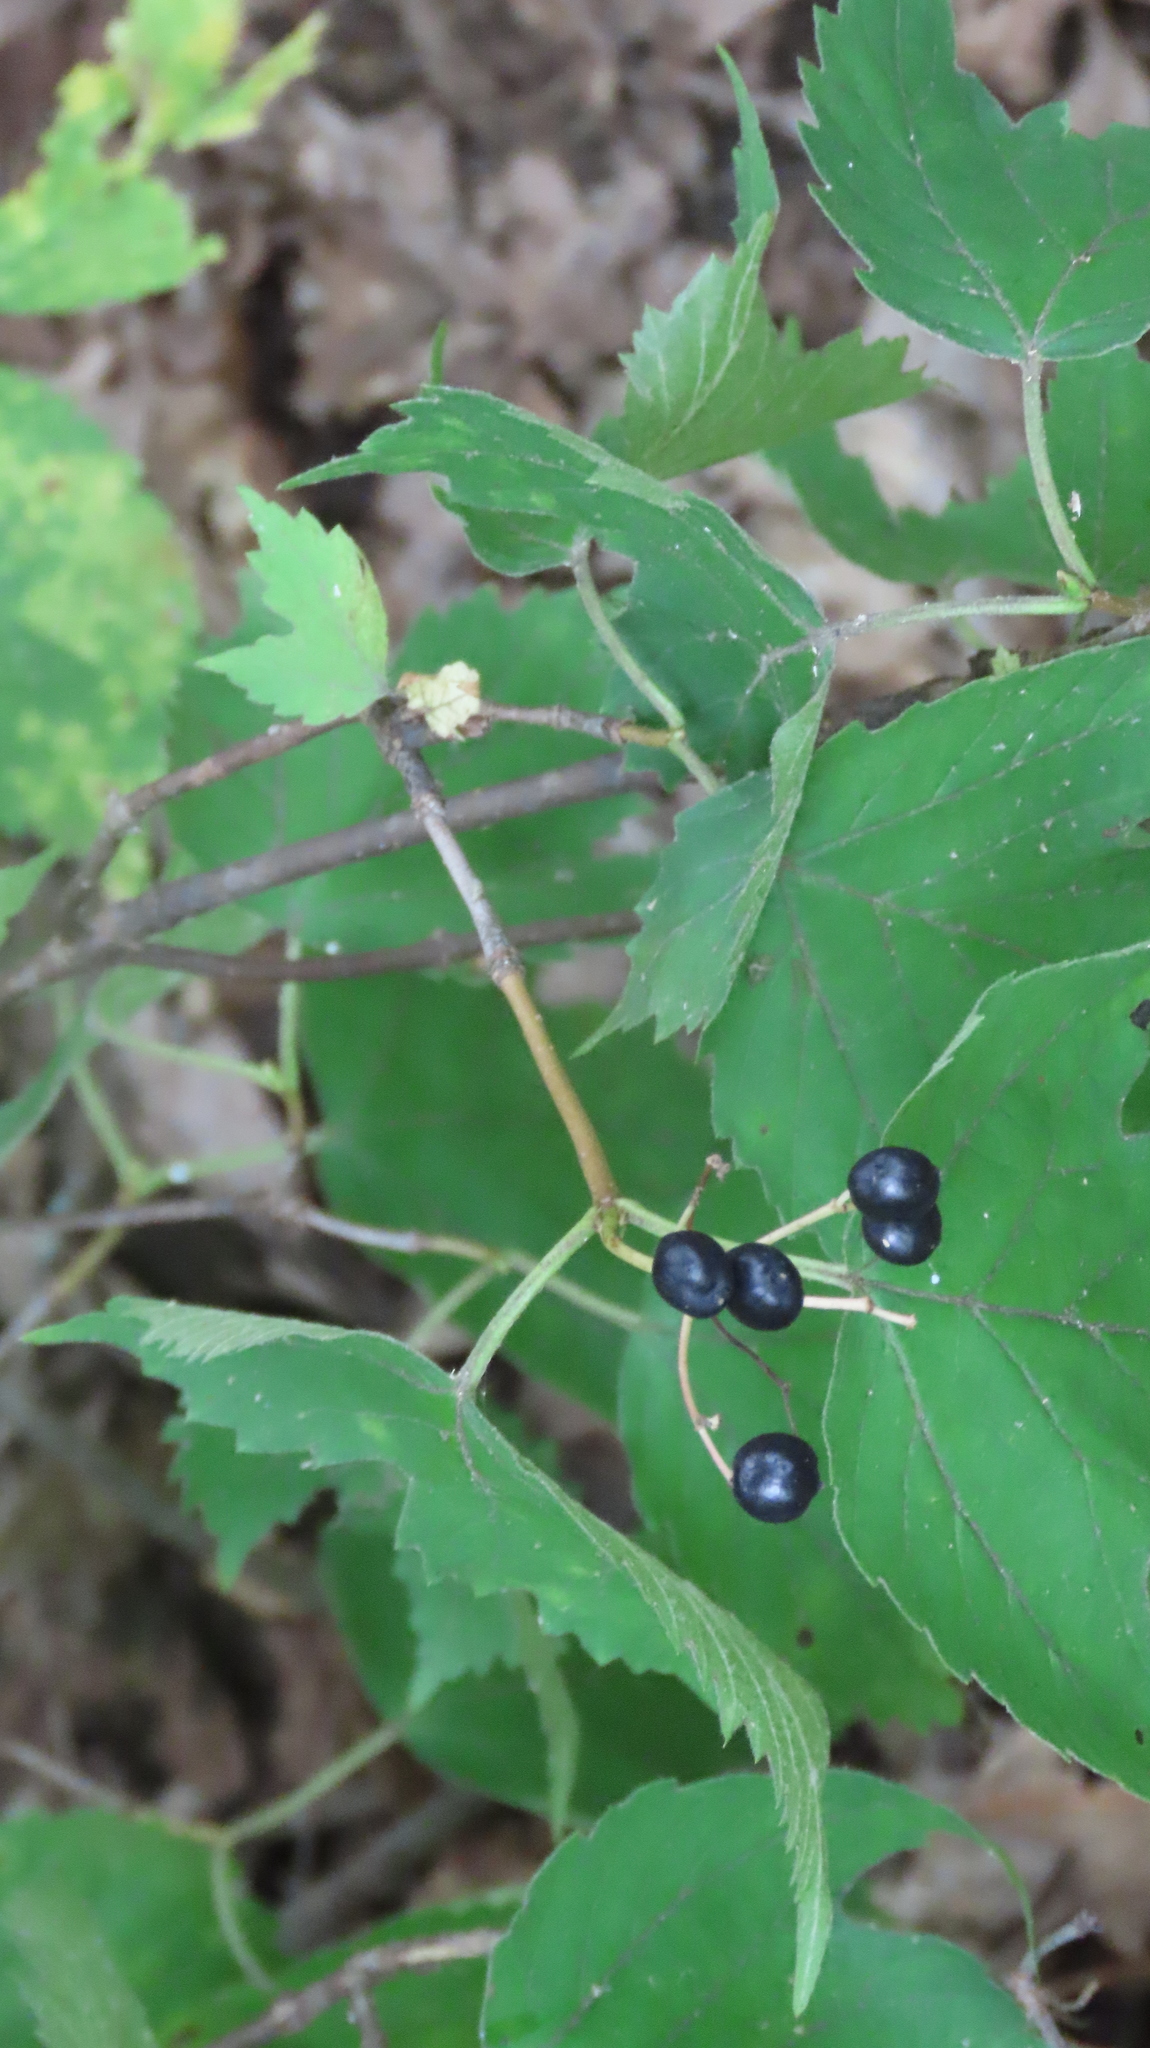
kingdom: Plantae
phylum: Tracheophyta
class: Magnoliopsida
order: Dipsacales
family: Viburnaceae
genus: Viburnum
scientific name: Viburnum acerifolium
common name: Dockmackie
